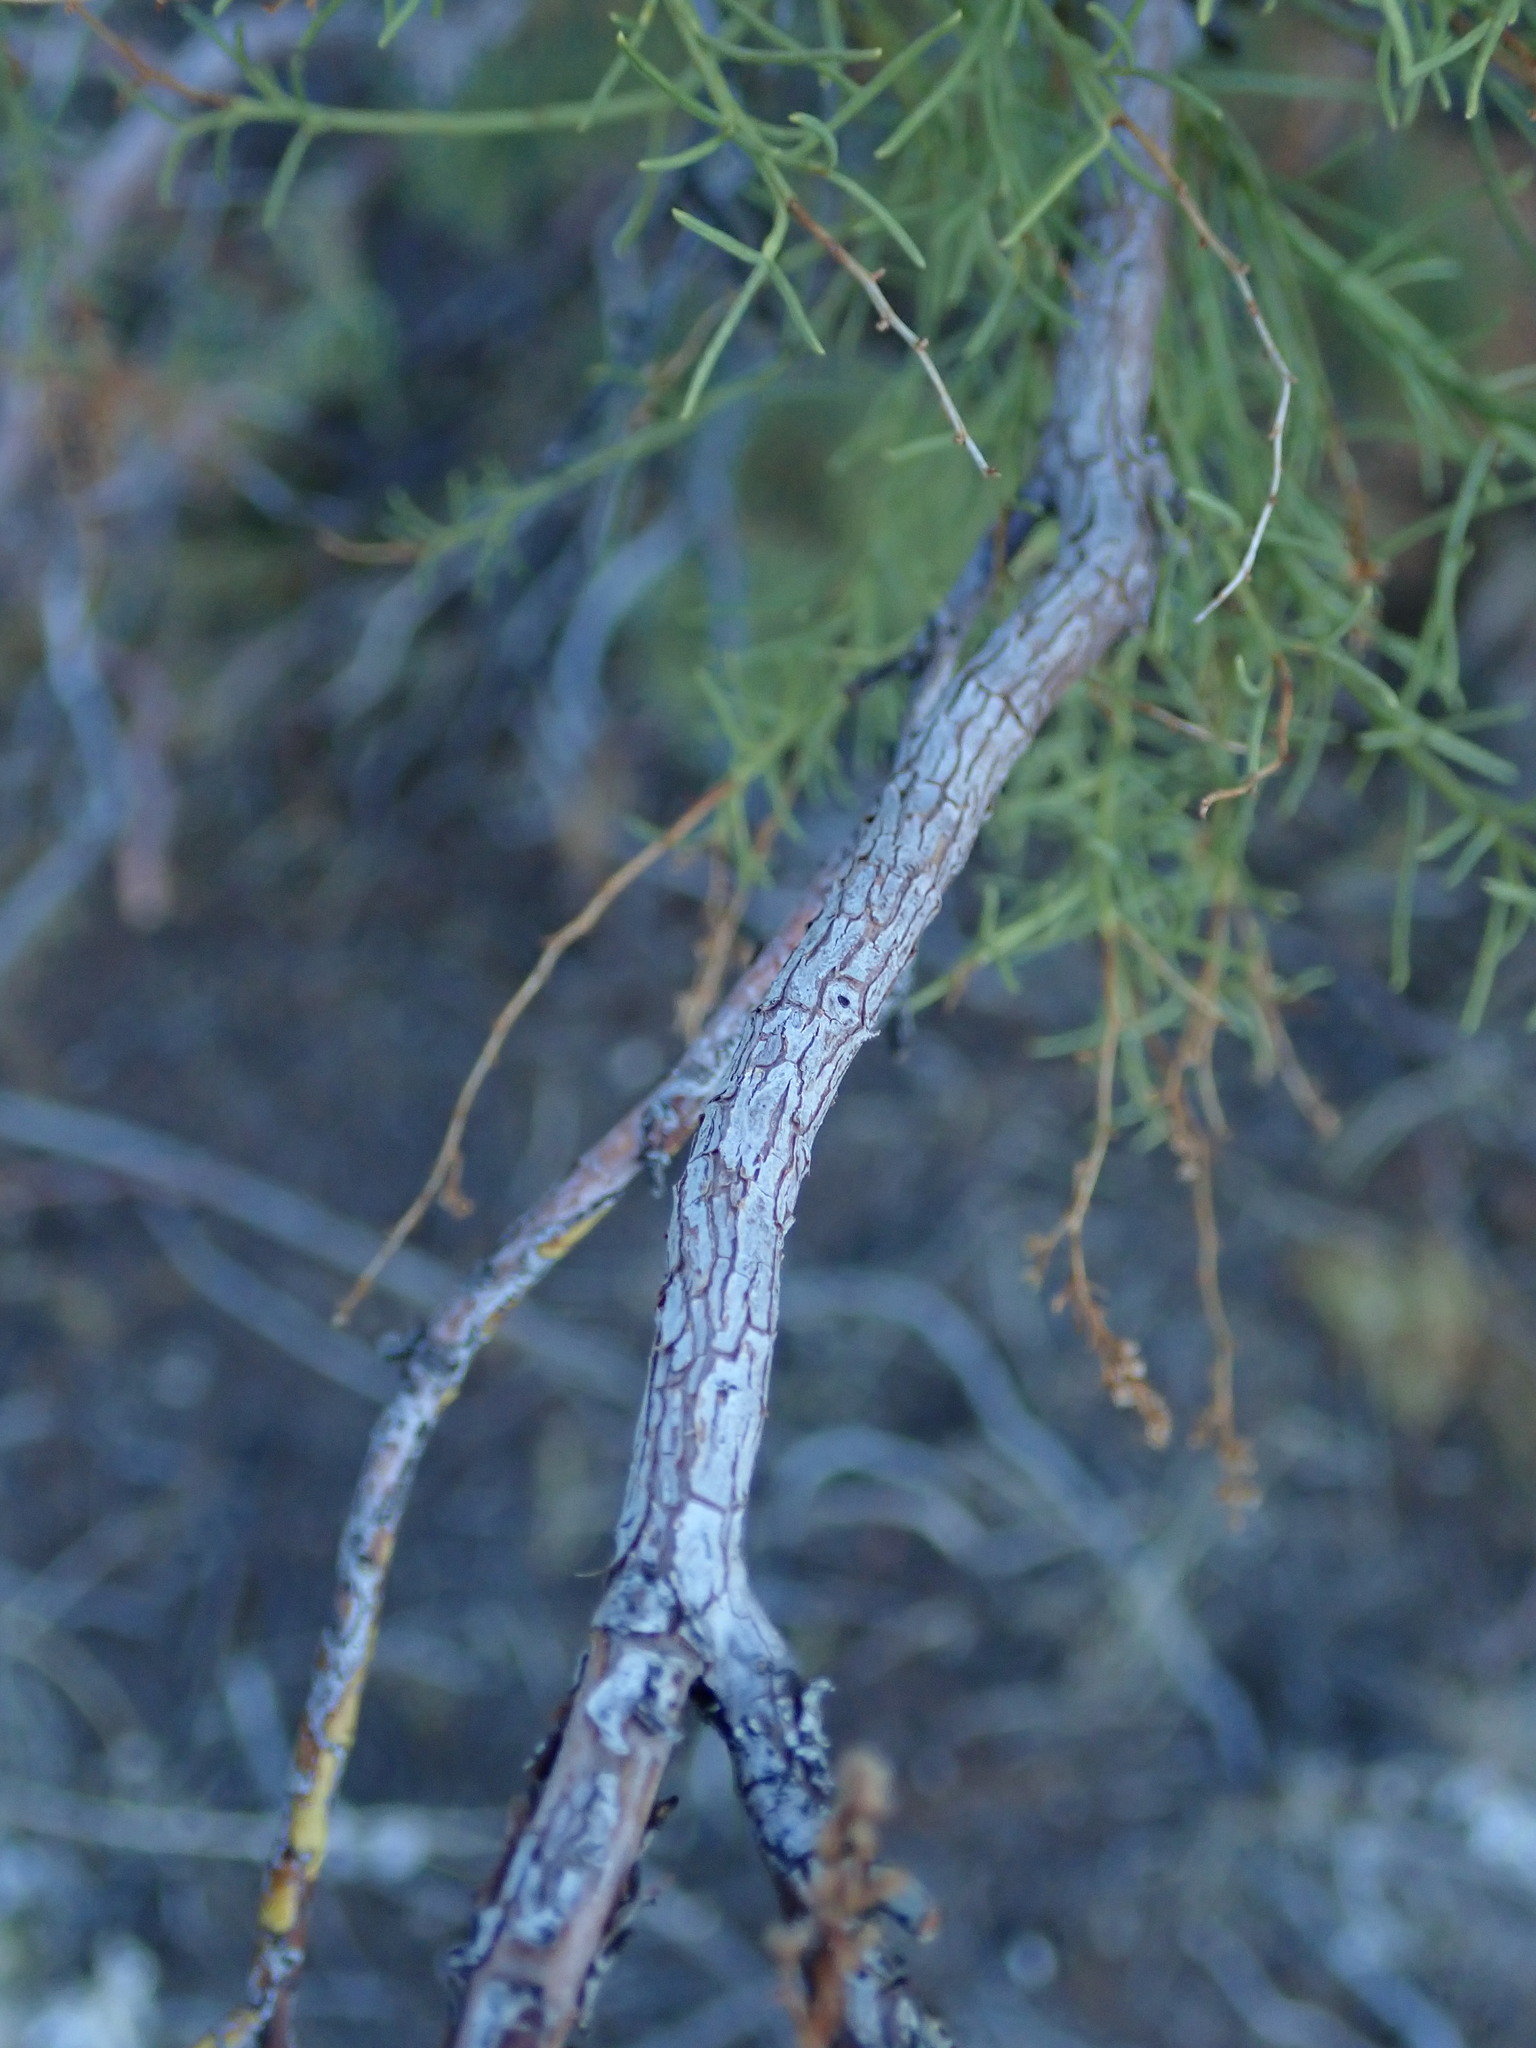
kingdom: Plantae
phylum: Tracheophyta
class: Magnoliopsida
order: Rosales
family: Rosaceae
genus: Adenostoma
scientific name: Adenostoma sparsifolium
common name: Red shank
